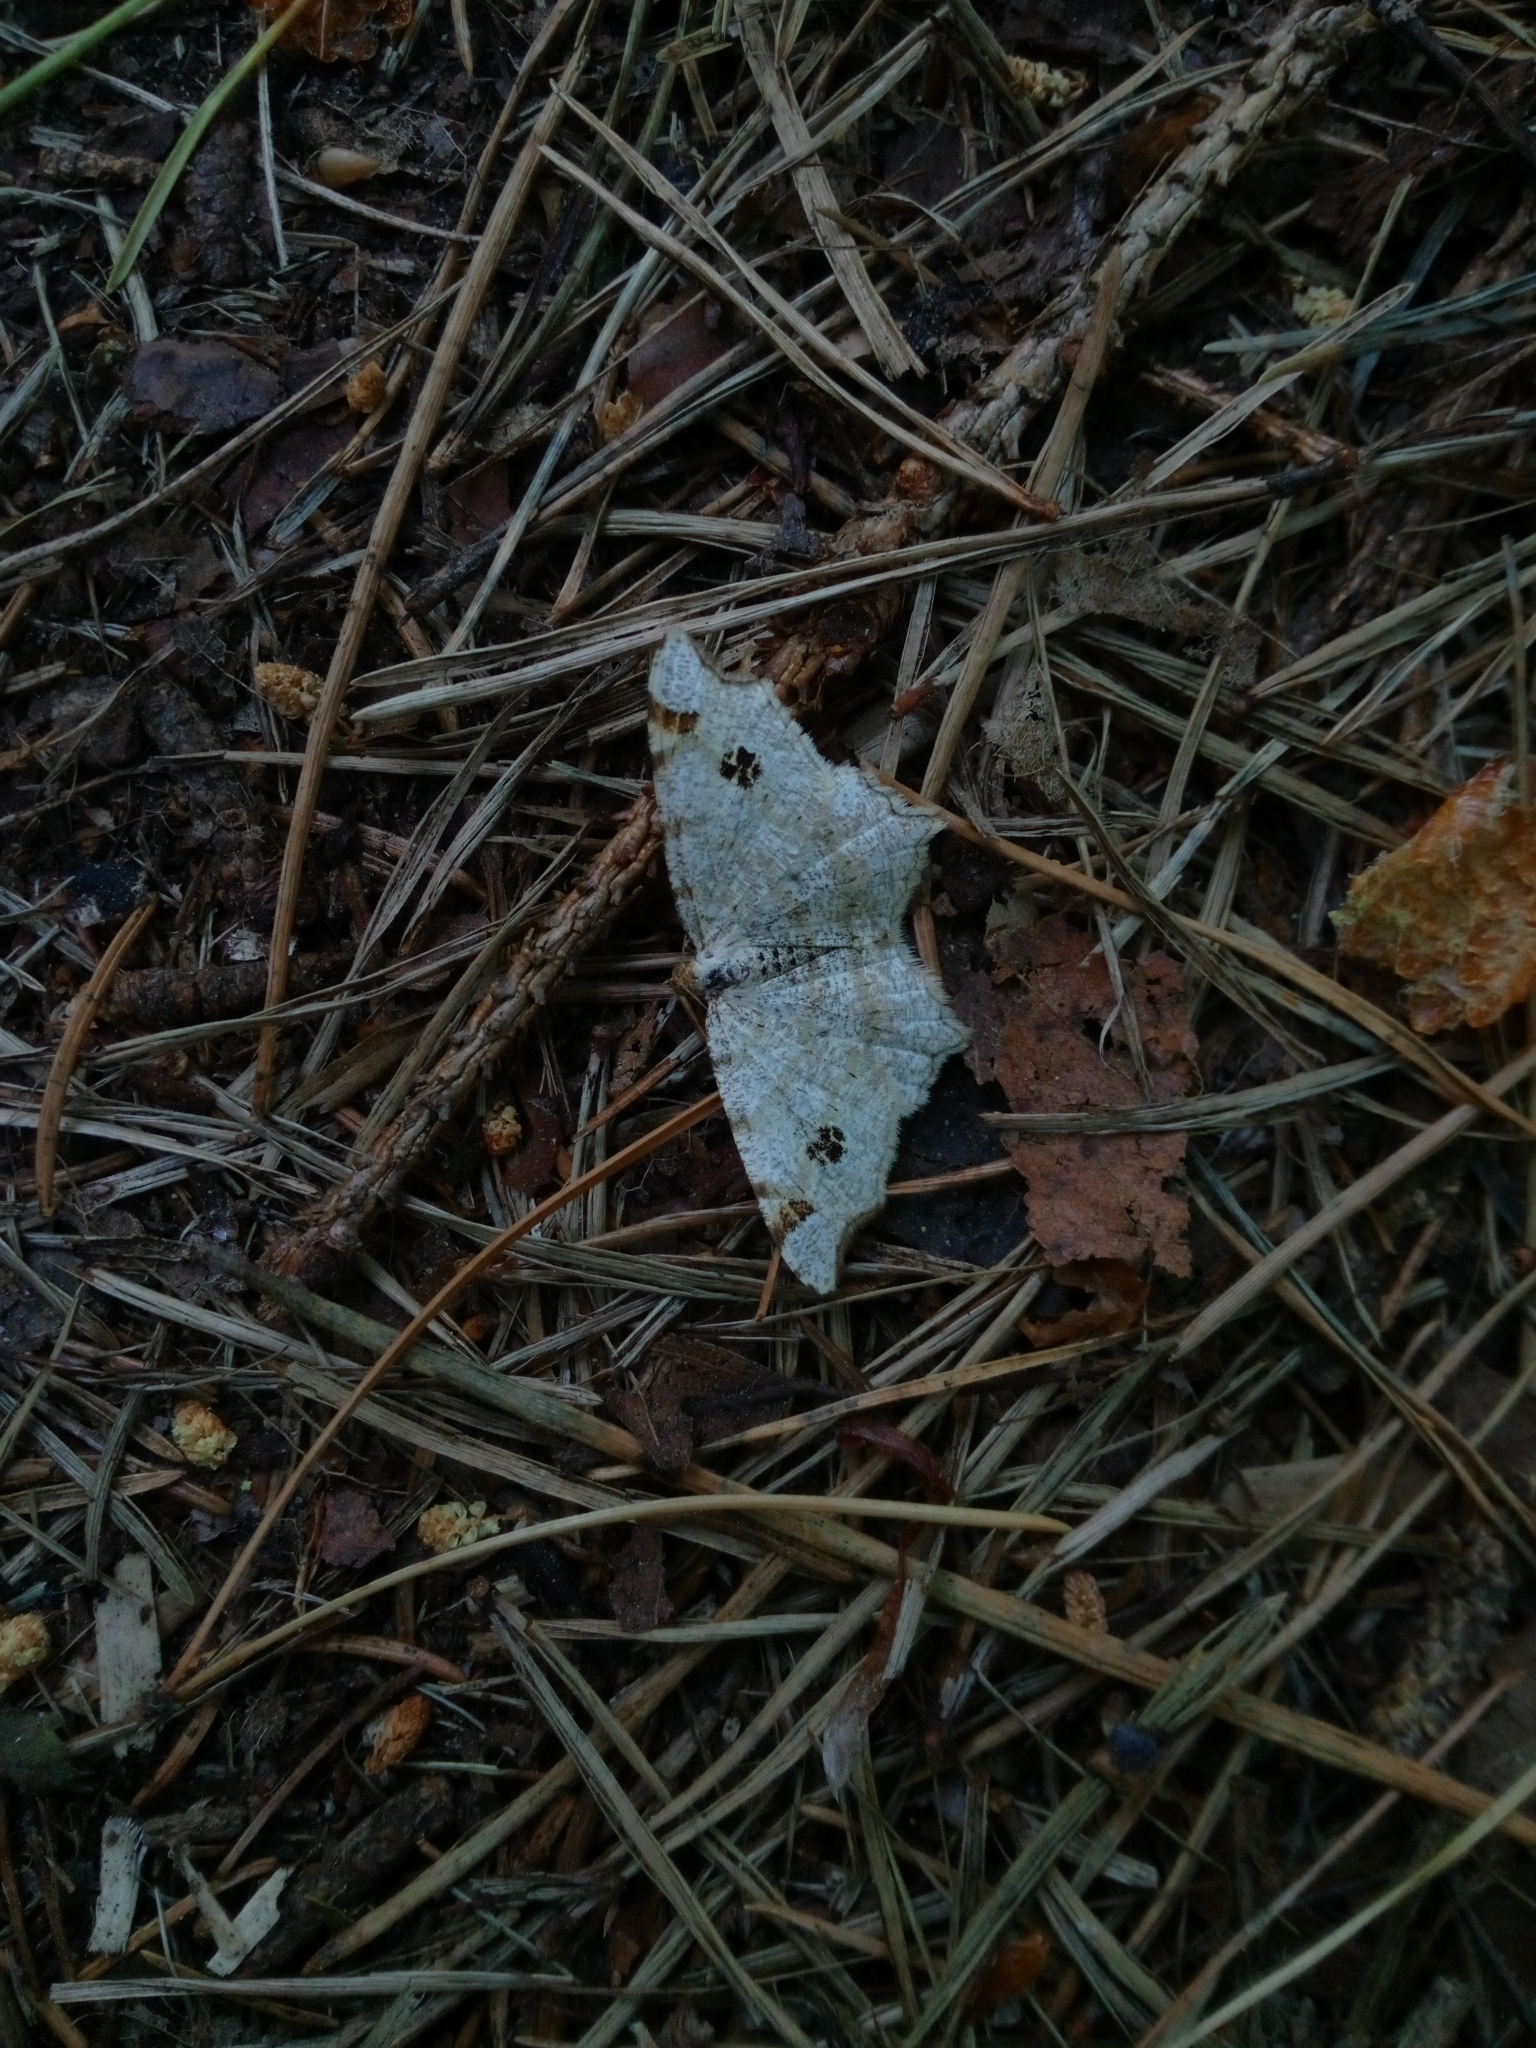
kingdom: Animalia
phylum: Arthropoda
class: Insecta
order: Lepidoptera
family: Geometridae
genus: Macaria
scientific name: Macaria notata
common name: Peacock moth
